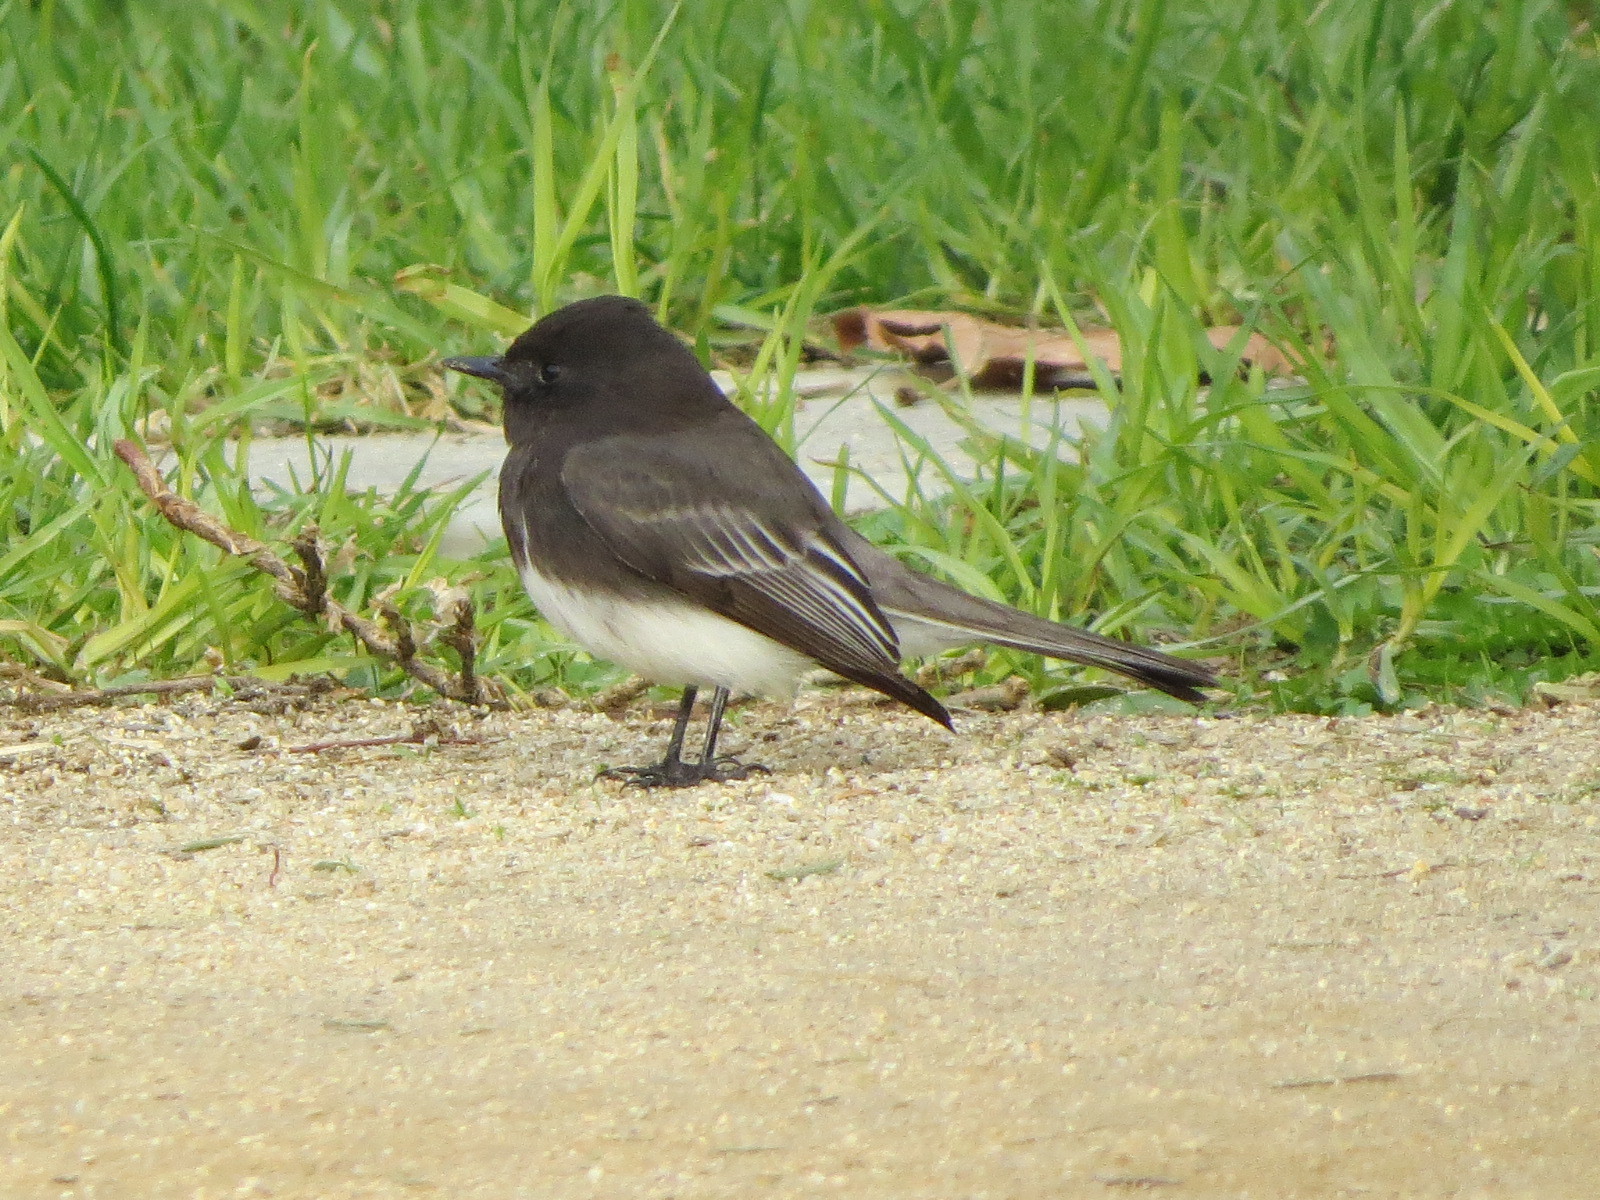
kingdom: Animalia
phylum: Chordata
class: Aves
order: Passeriformes
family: Tyrannidae
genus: Sayornis
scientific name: Sayornis nigricans
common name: Black phoebe
